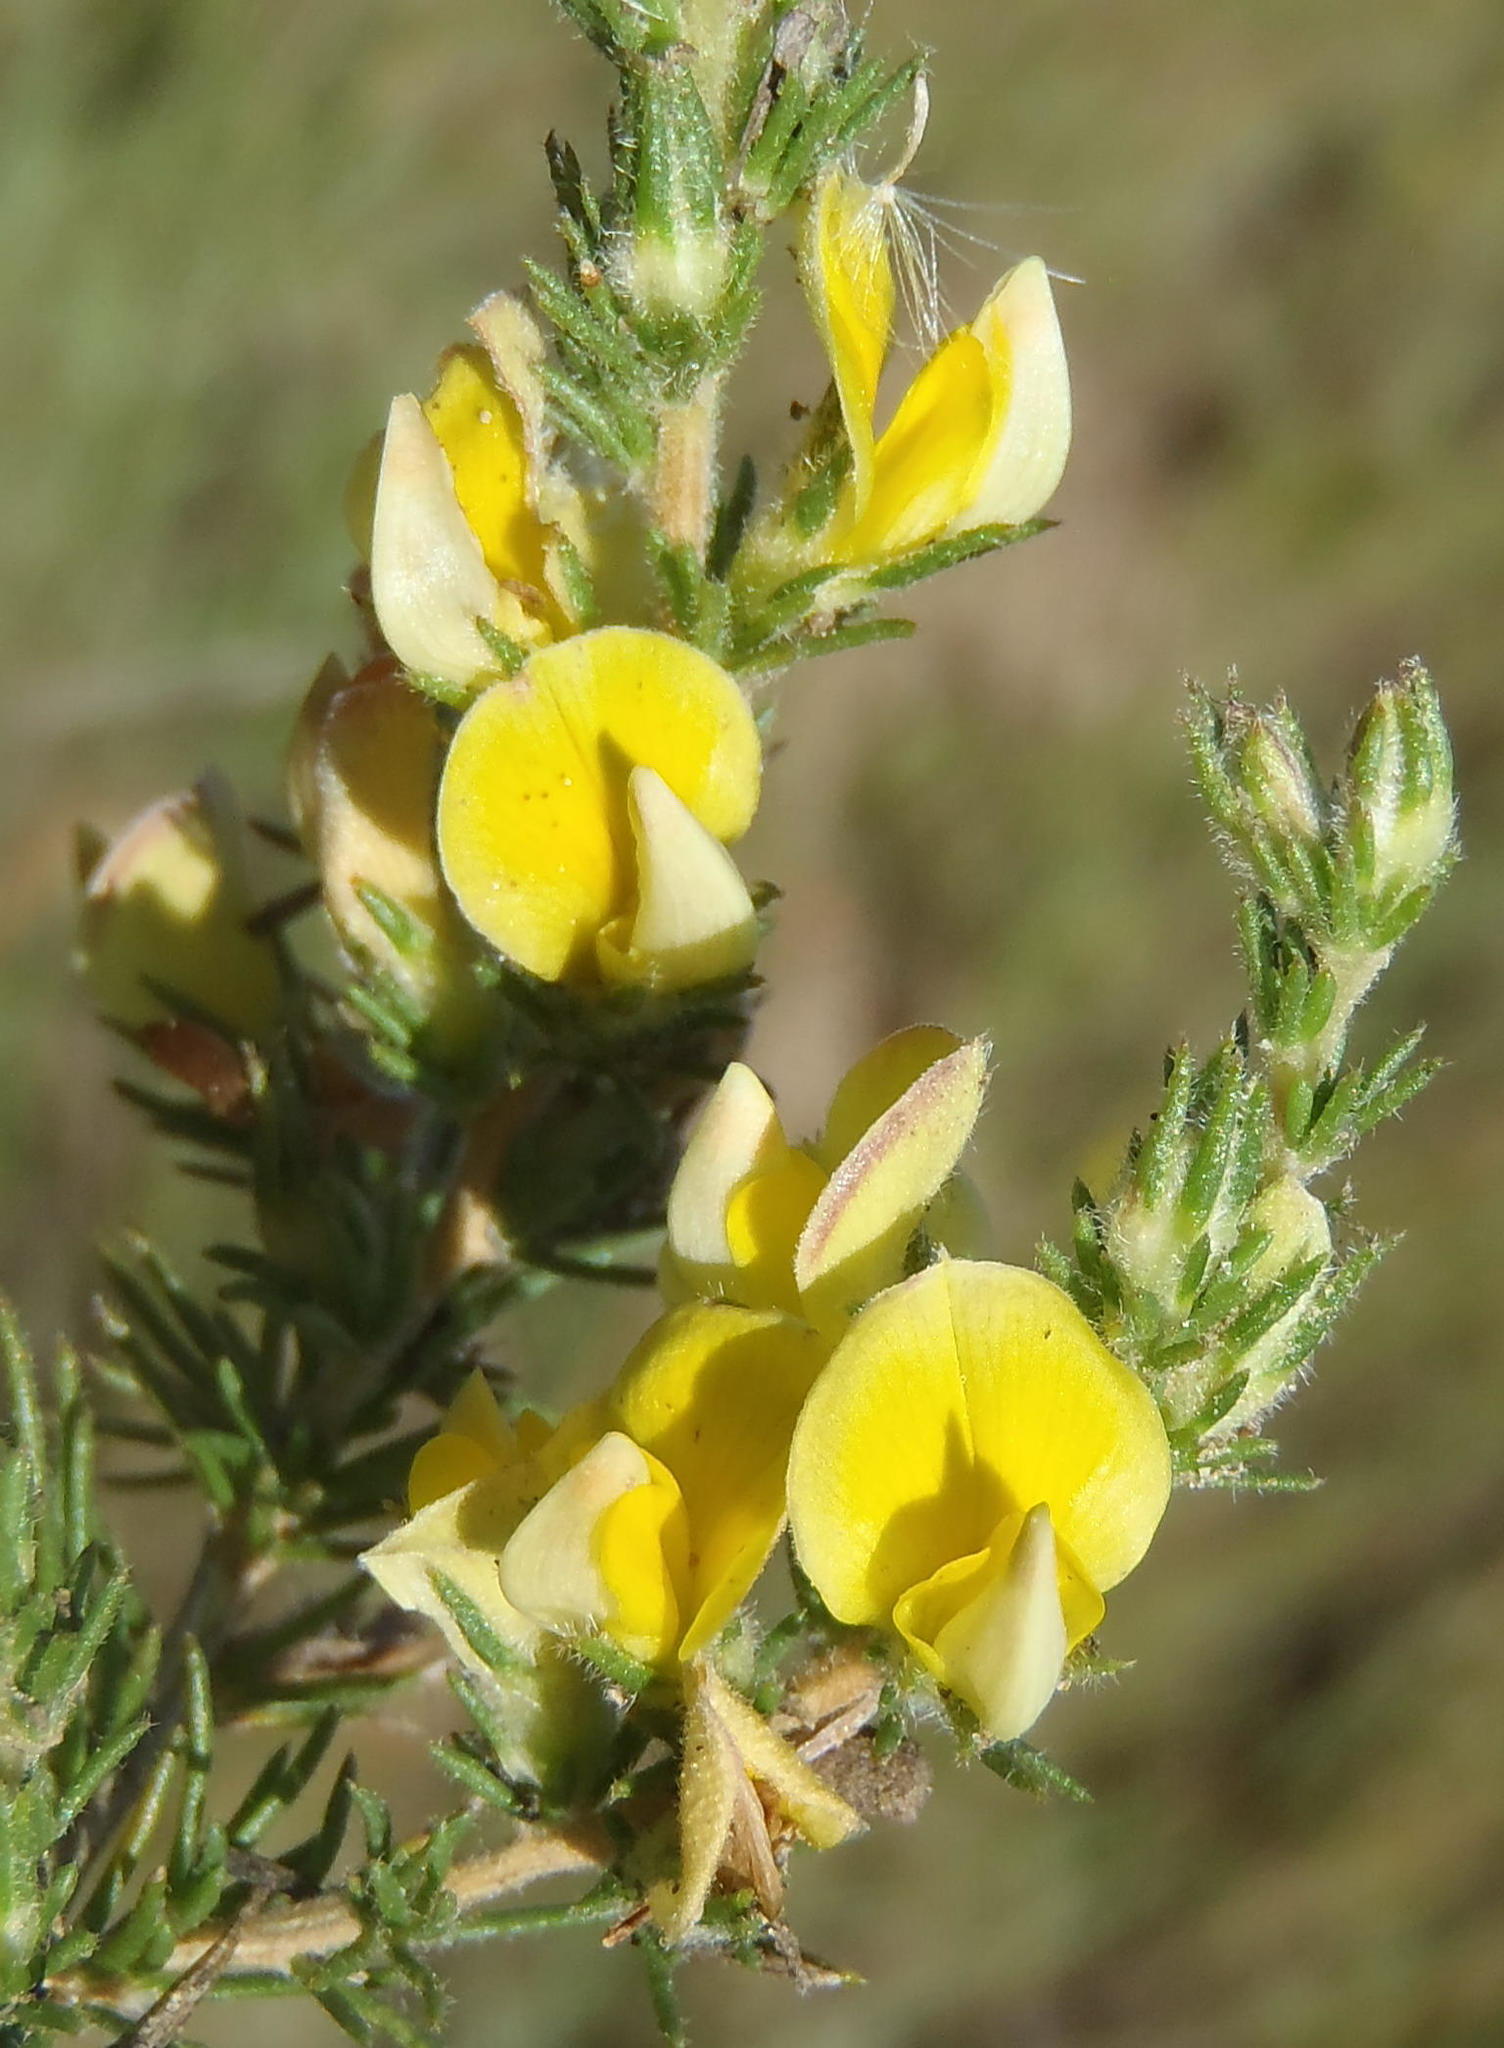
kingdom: Plantae
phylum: Tracheophyta
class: Magnoliopsida
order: Fabales
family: Fabaceae
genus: Aspalathus
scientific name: Aspalathus asparagoides
